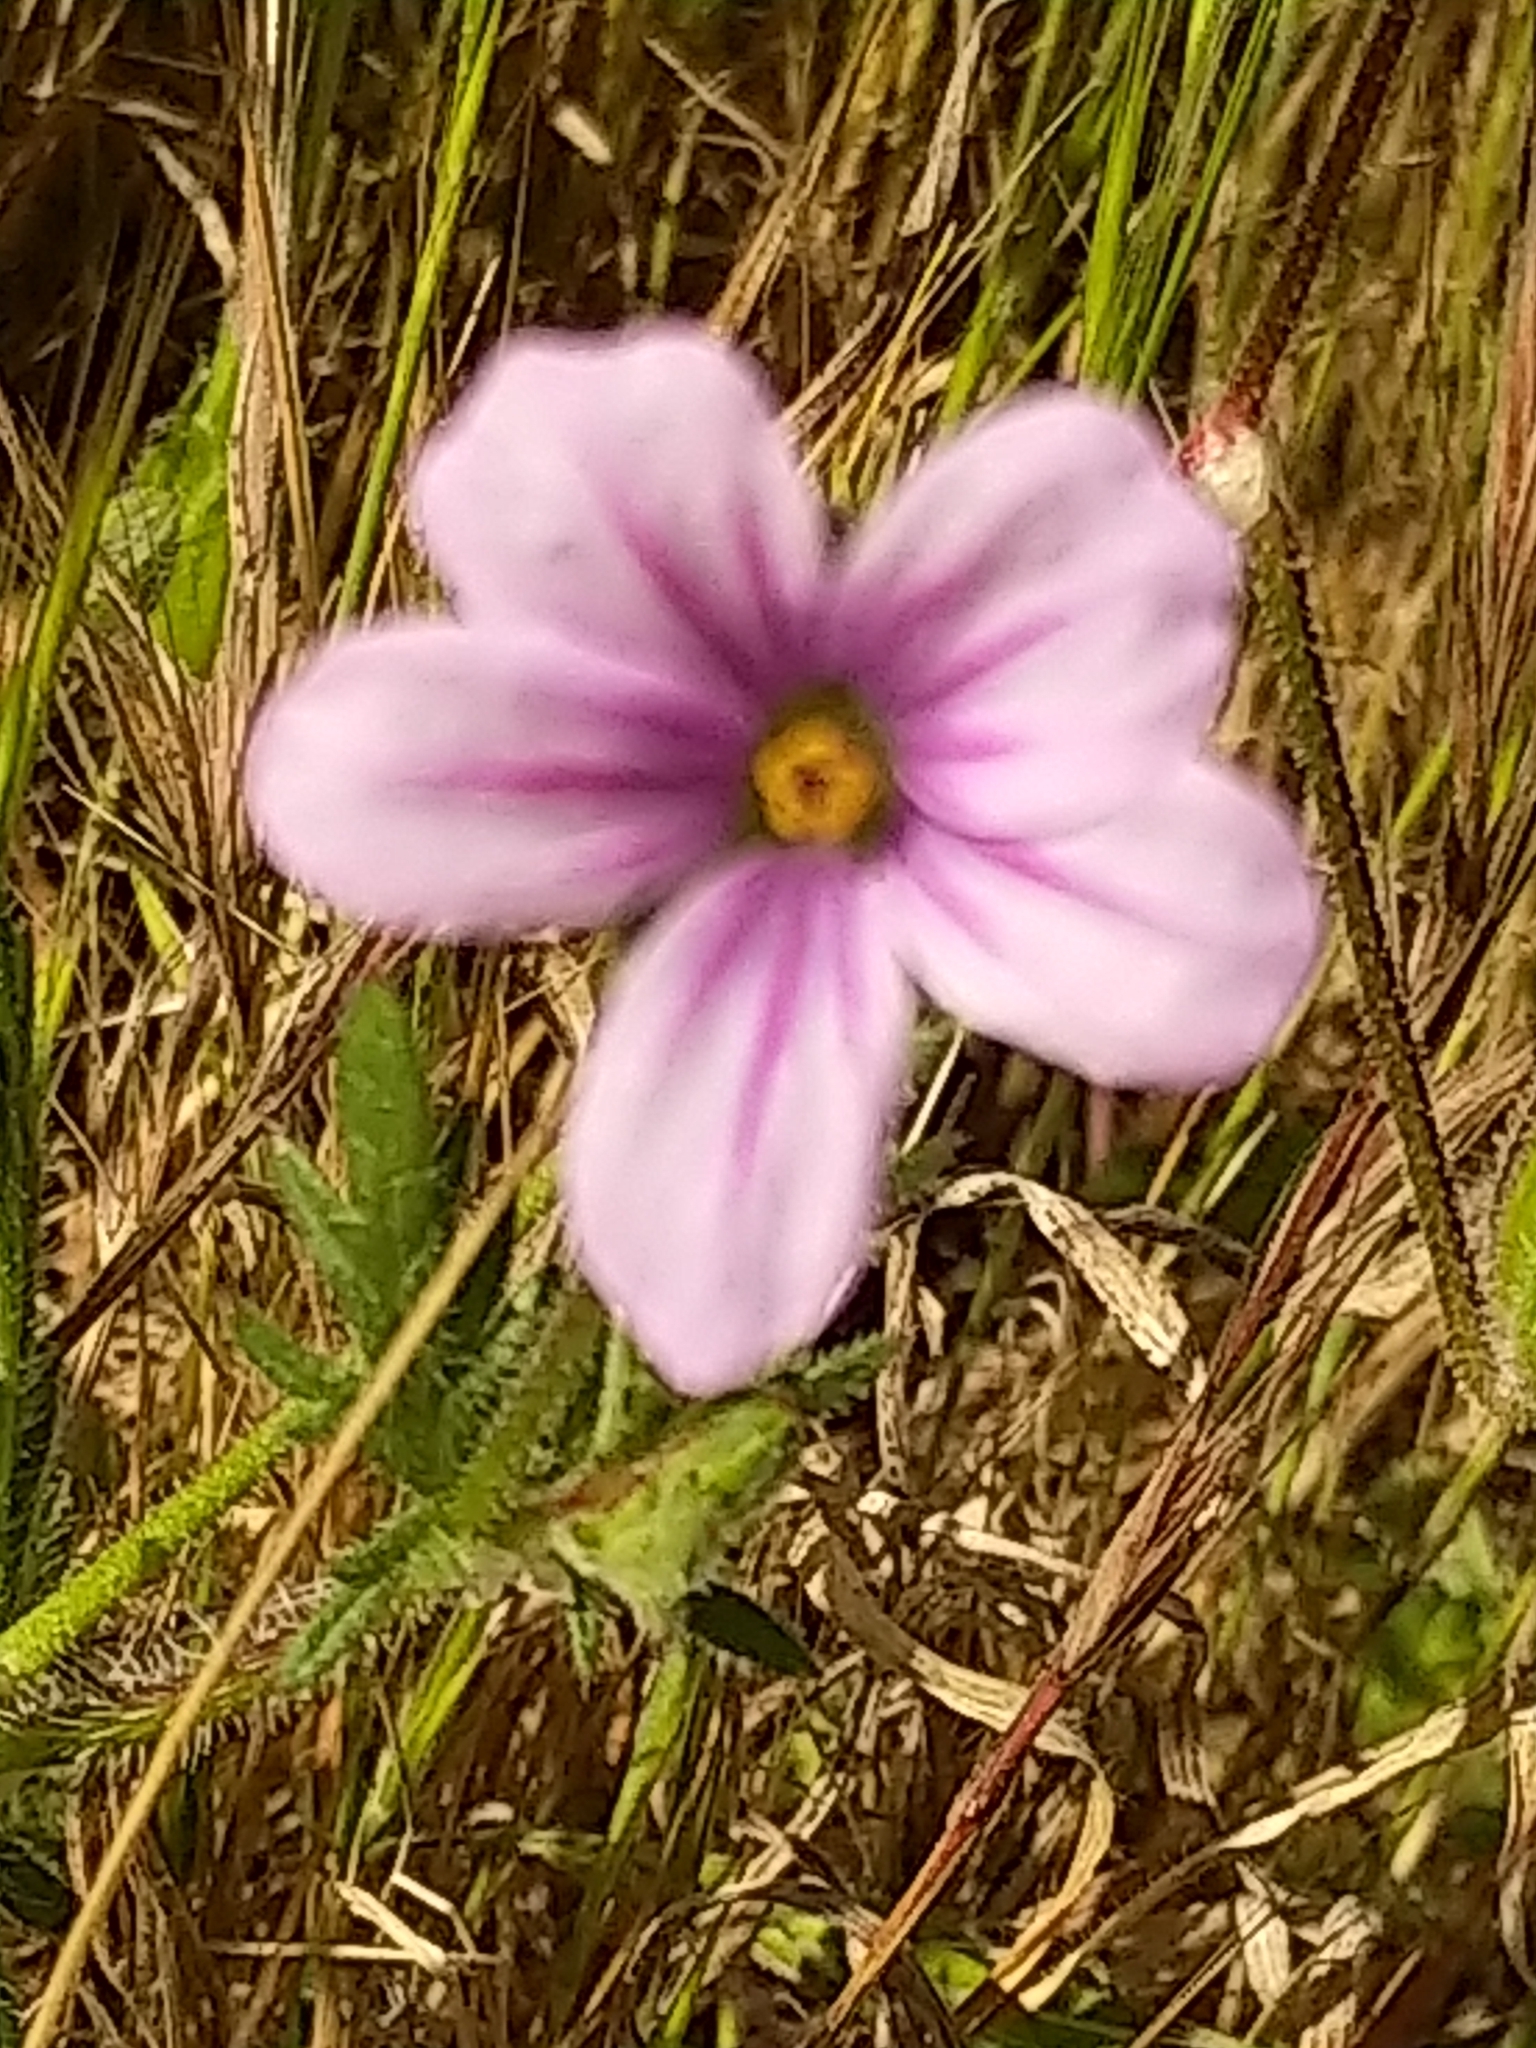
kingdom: Plantae
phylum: Tracheophyta
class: Magnoliopsida
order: Geraniales
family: Geraniaceae
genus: Erodium
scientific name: Erodium botrys
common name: Mediterranean stork's-bill
